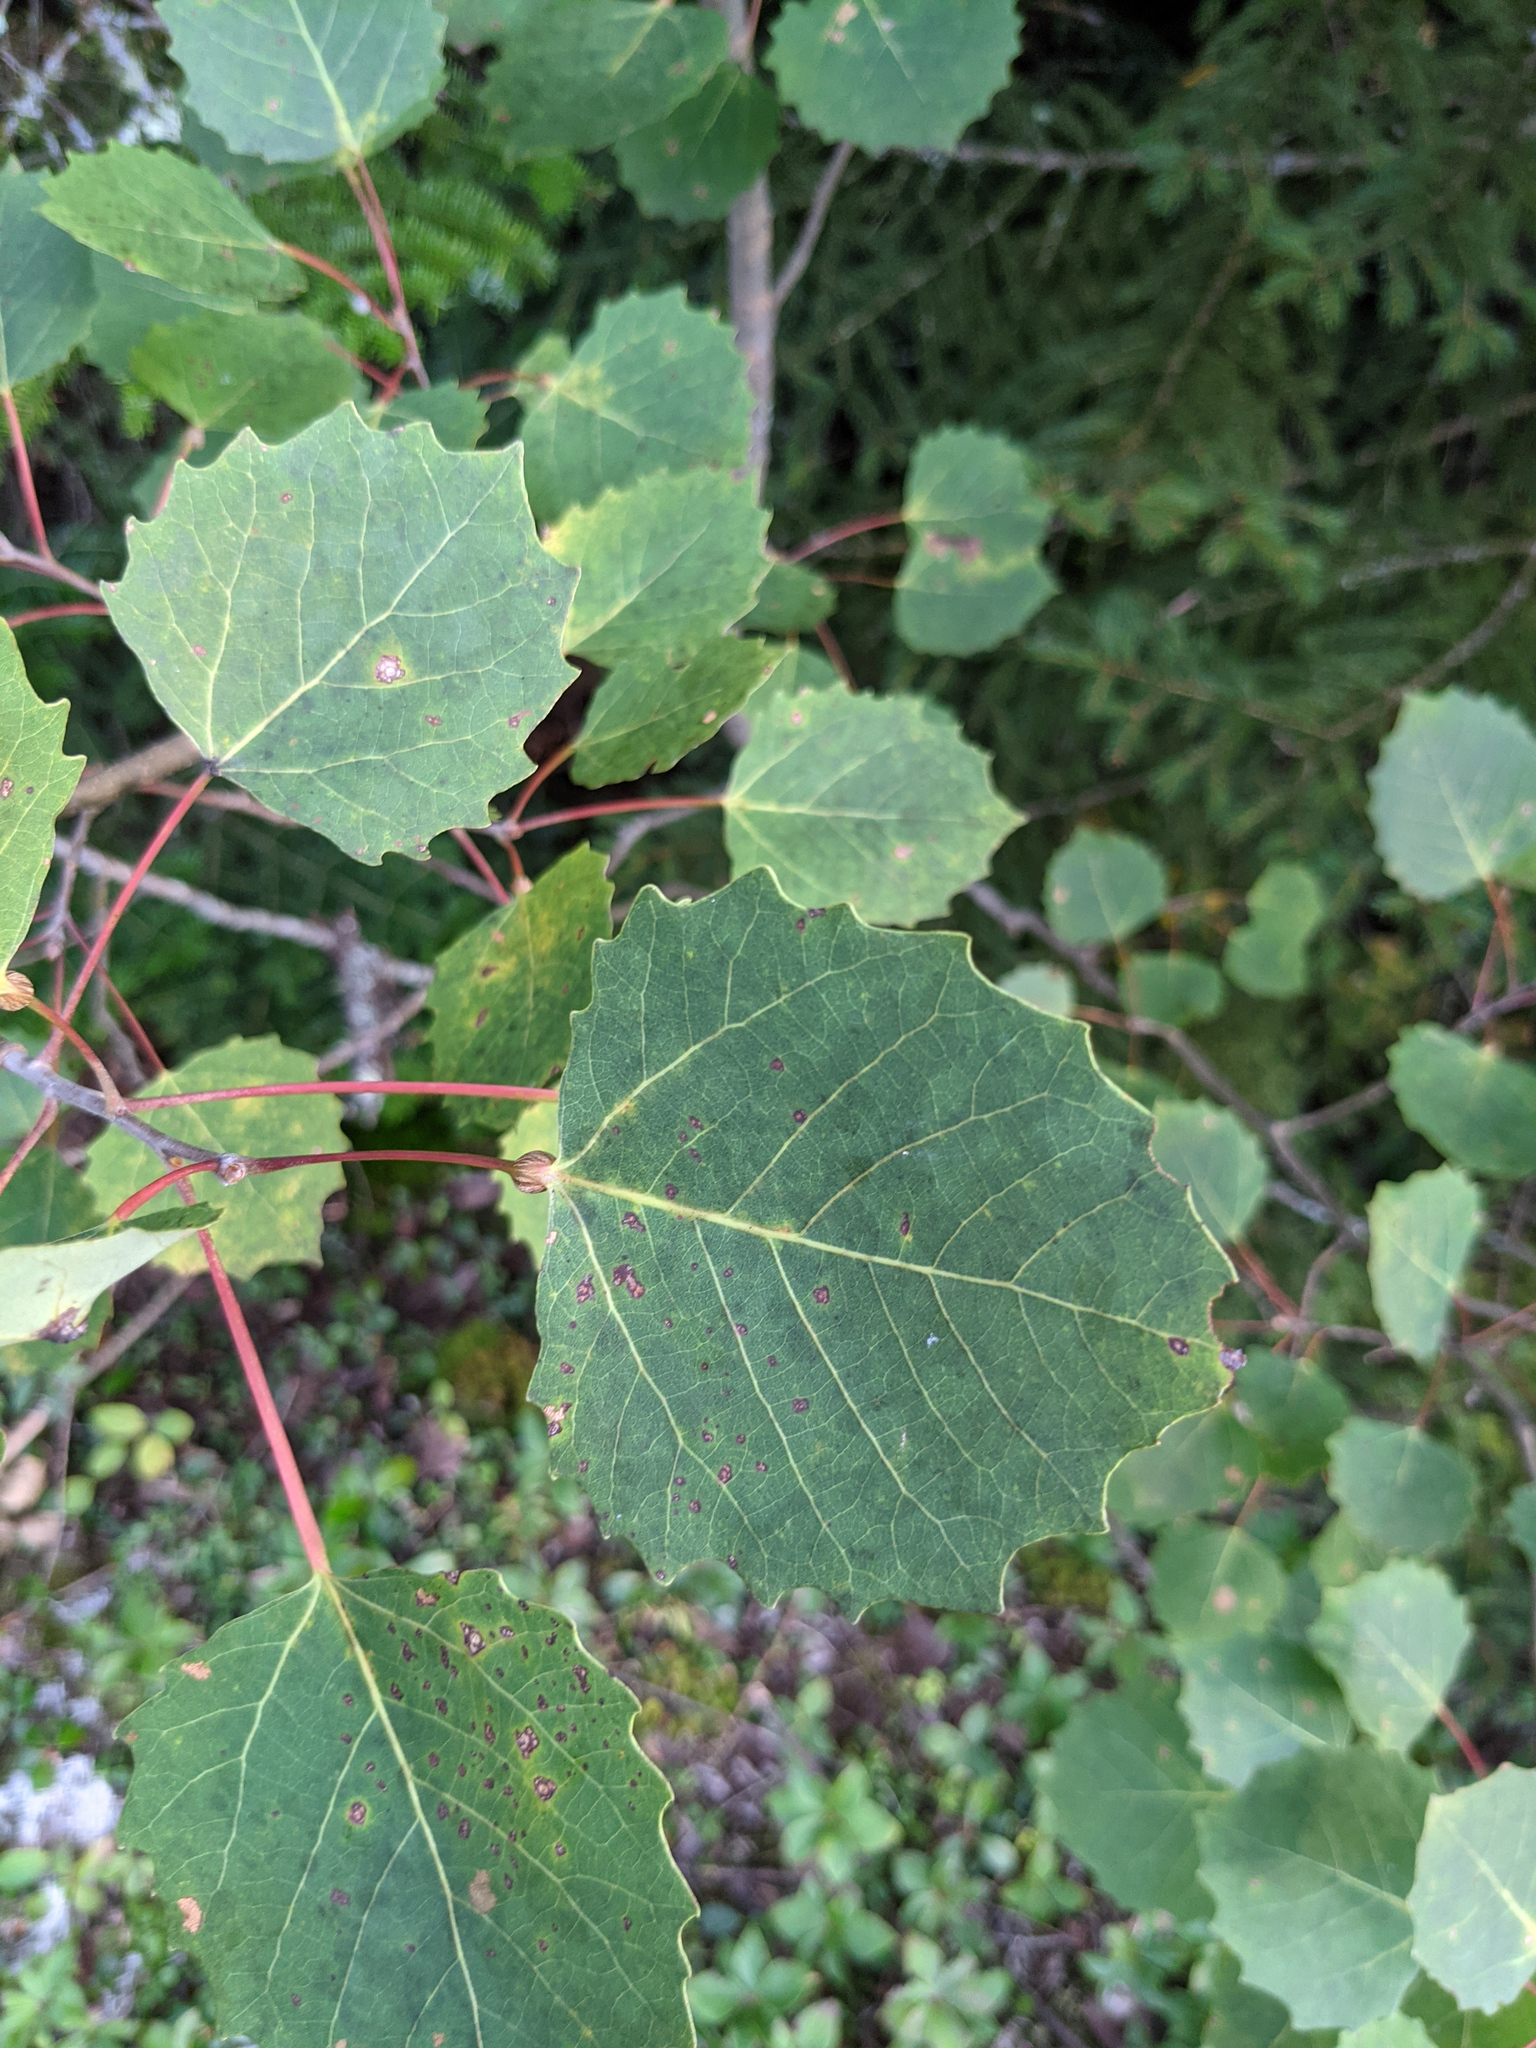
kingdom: Plantae
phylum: Tracheophyta
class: Magnoliopsida
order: Malpighiales
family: Salicaceae
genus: Populus
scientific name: Populus grandidentata
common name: Bigtooth aspen
